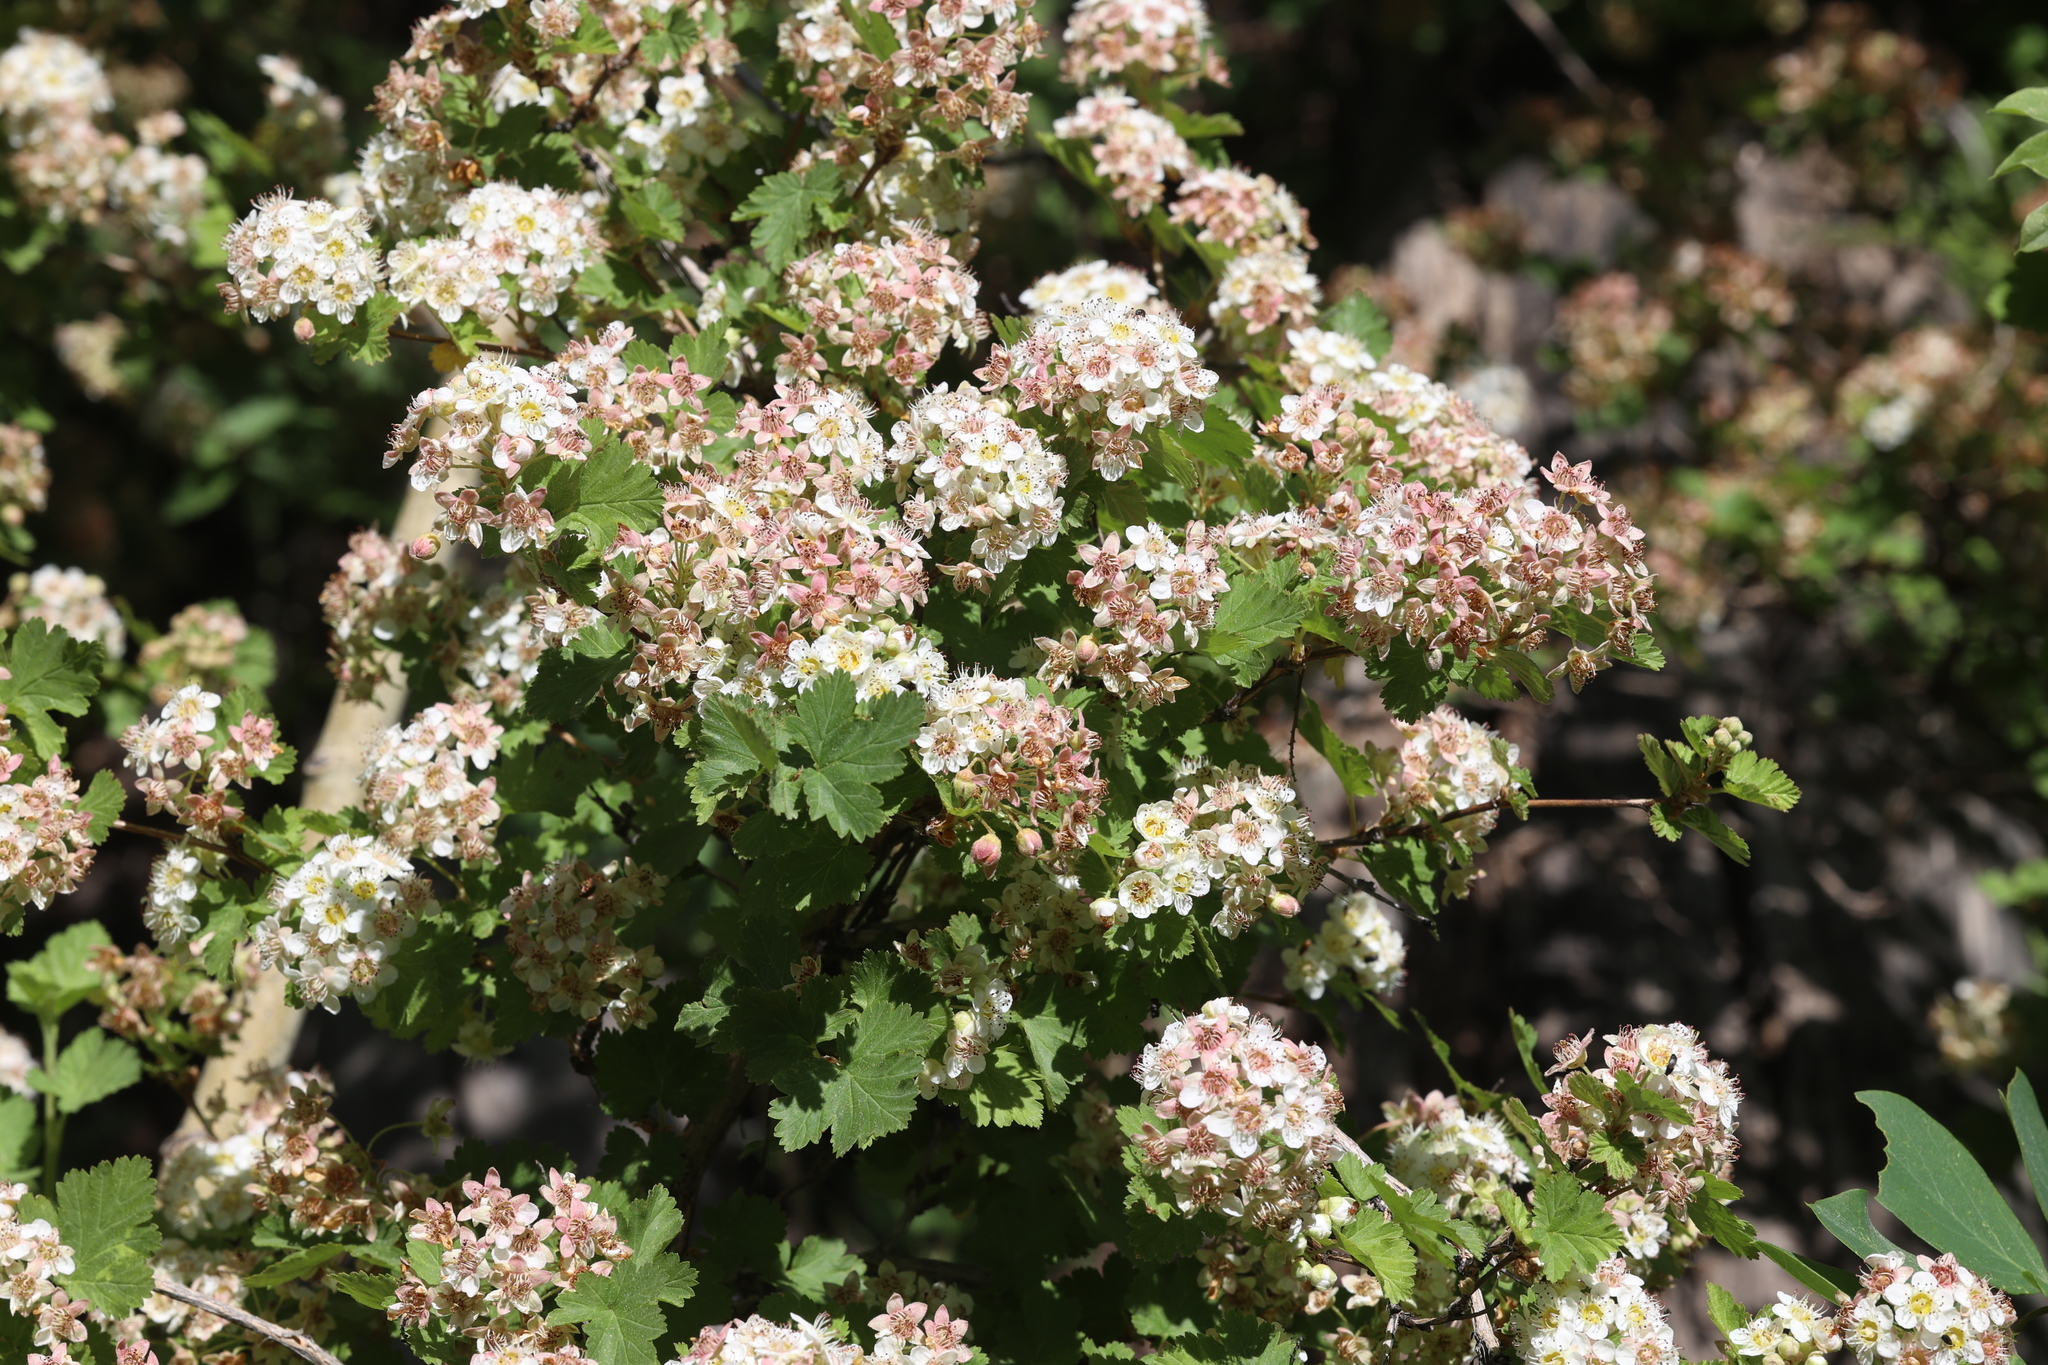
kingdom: Plantae
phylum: Tracheophyta
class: Magnoliopsida
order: Rosales
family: Rosaceae
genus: Physocarpus
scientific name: Physocarpus monogynus
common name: Mountain ninebark
